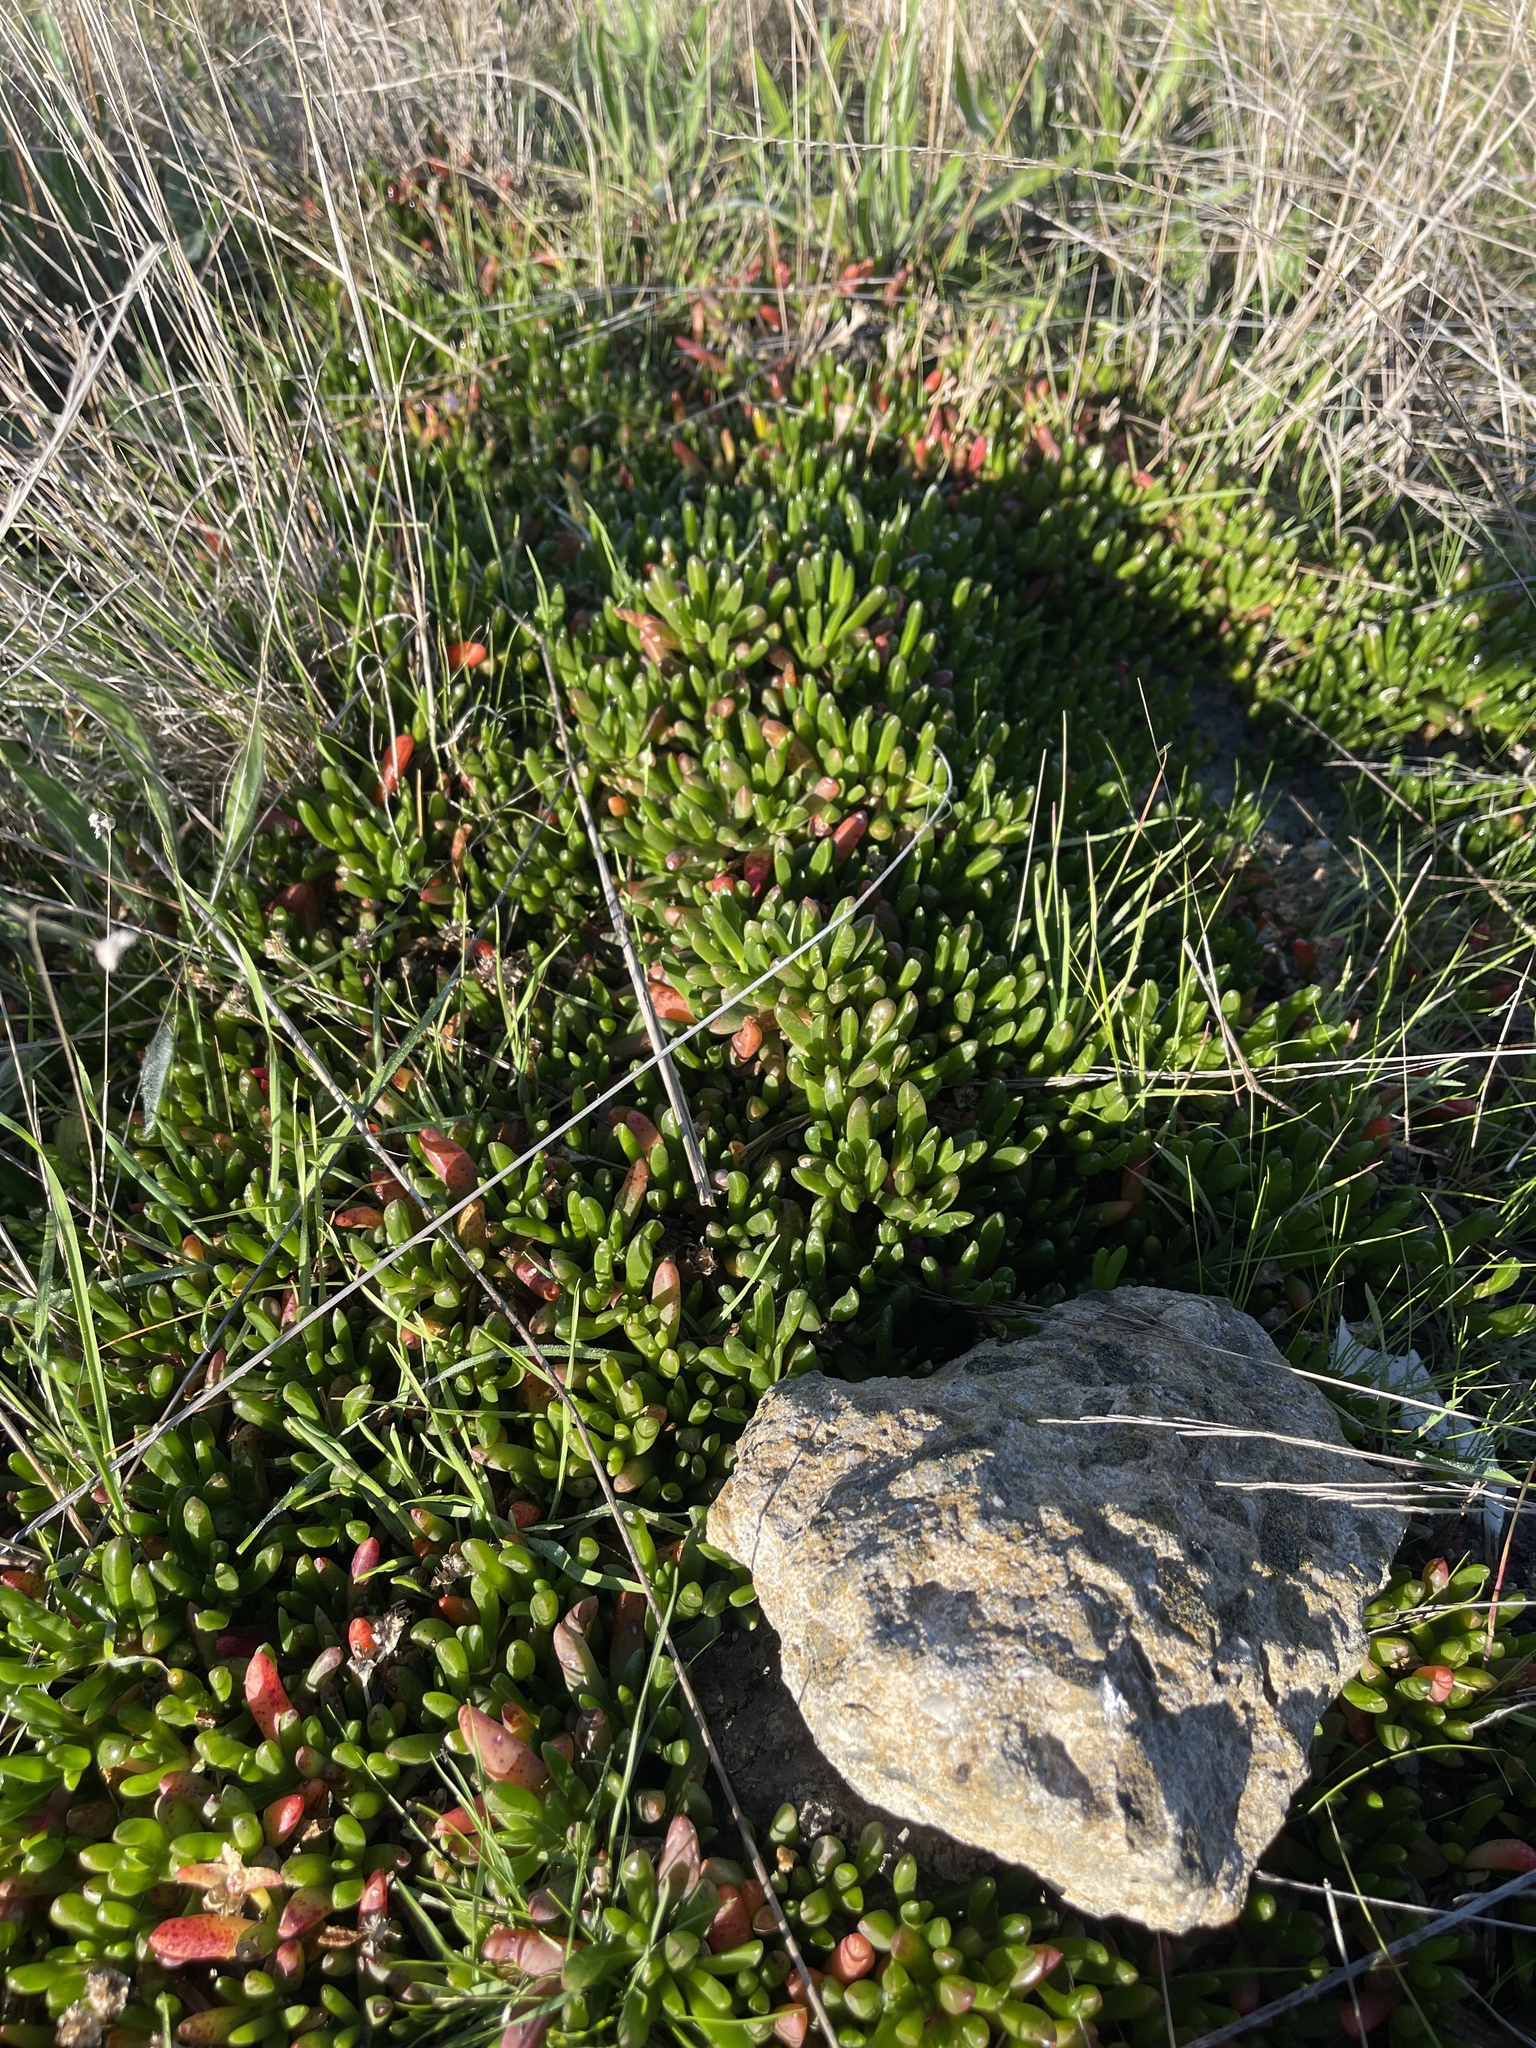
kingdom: Plantae
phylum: Tracheophyta
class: Magnoliopsida
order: Caryophyllales
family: Aizoaceae
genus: Disphyma
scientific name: Disphyma clavellatum
